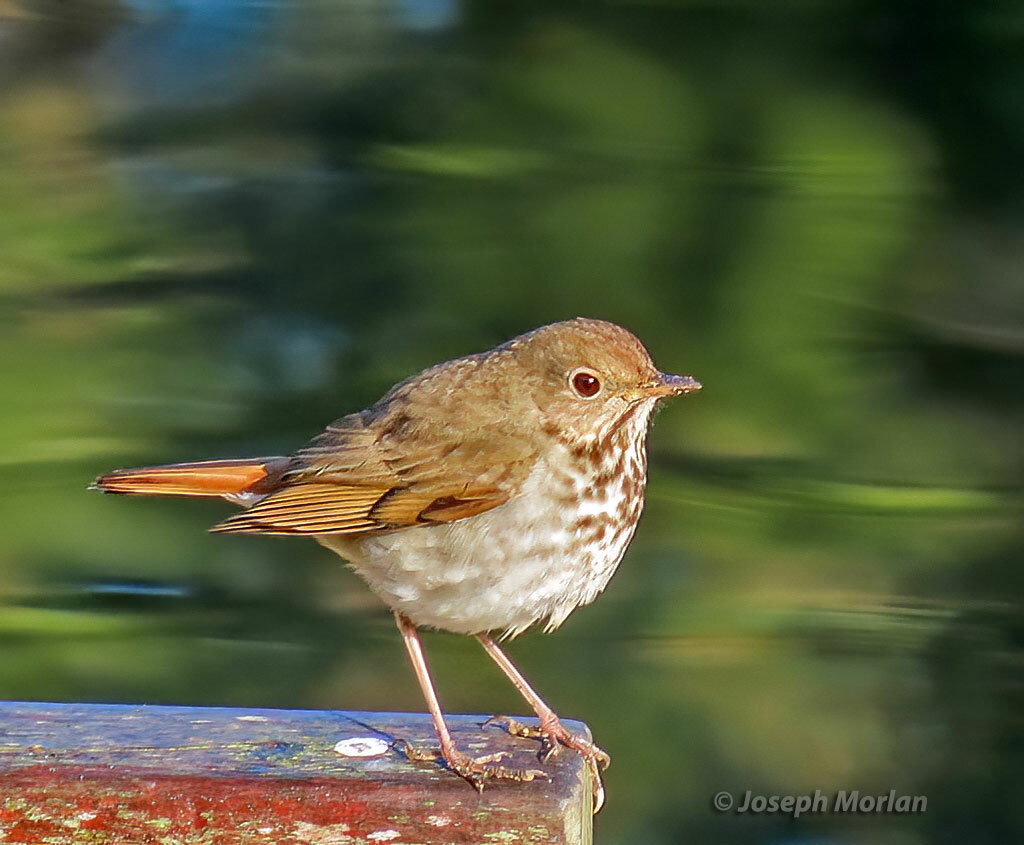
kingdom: Animalia
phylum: Chordata
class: Aves
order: Passeriformes
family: Turdidae
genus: Catharus
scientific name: Catharus guttatus
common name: Hermit thrush
